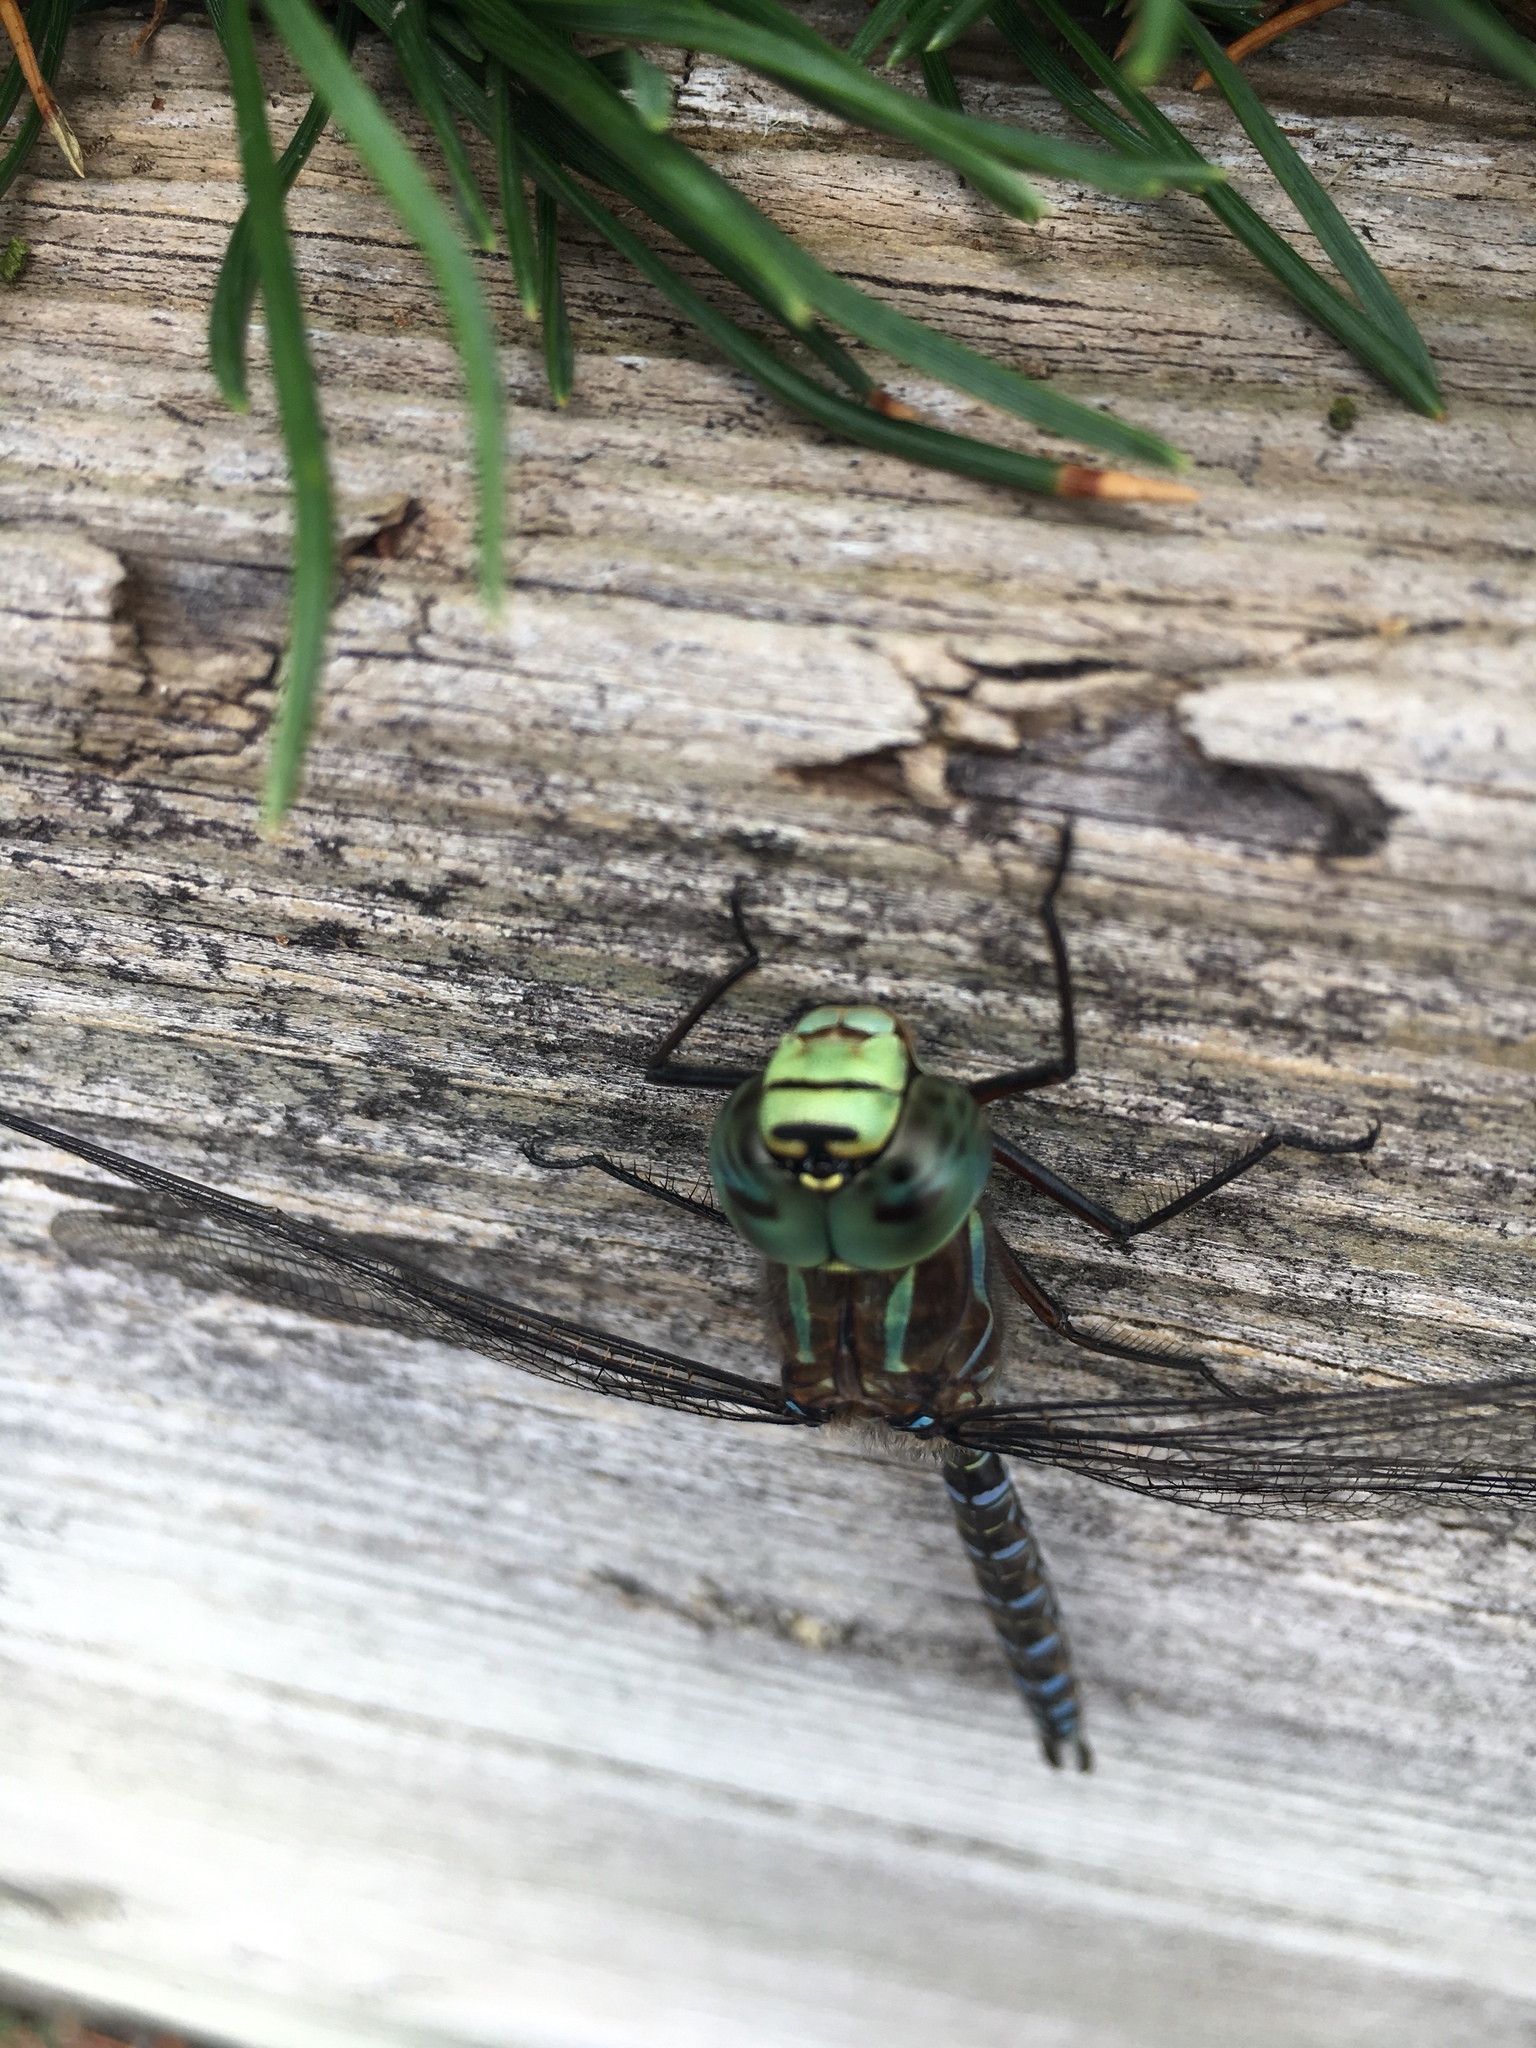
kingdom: Animalia
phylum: Arthropoda
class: Insecta
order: Odonata
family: Aeshnidae
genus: Aeshna
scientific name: Aeshna eremita
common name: Lake darner
